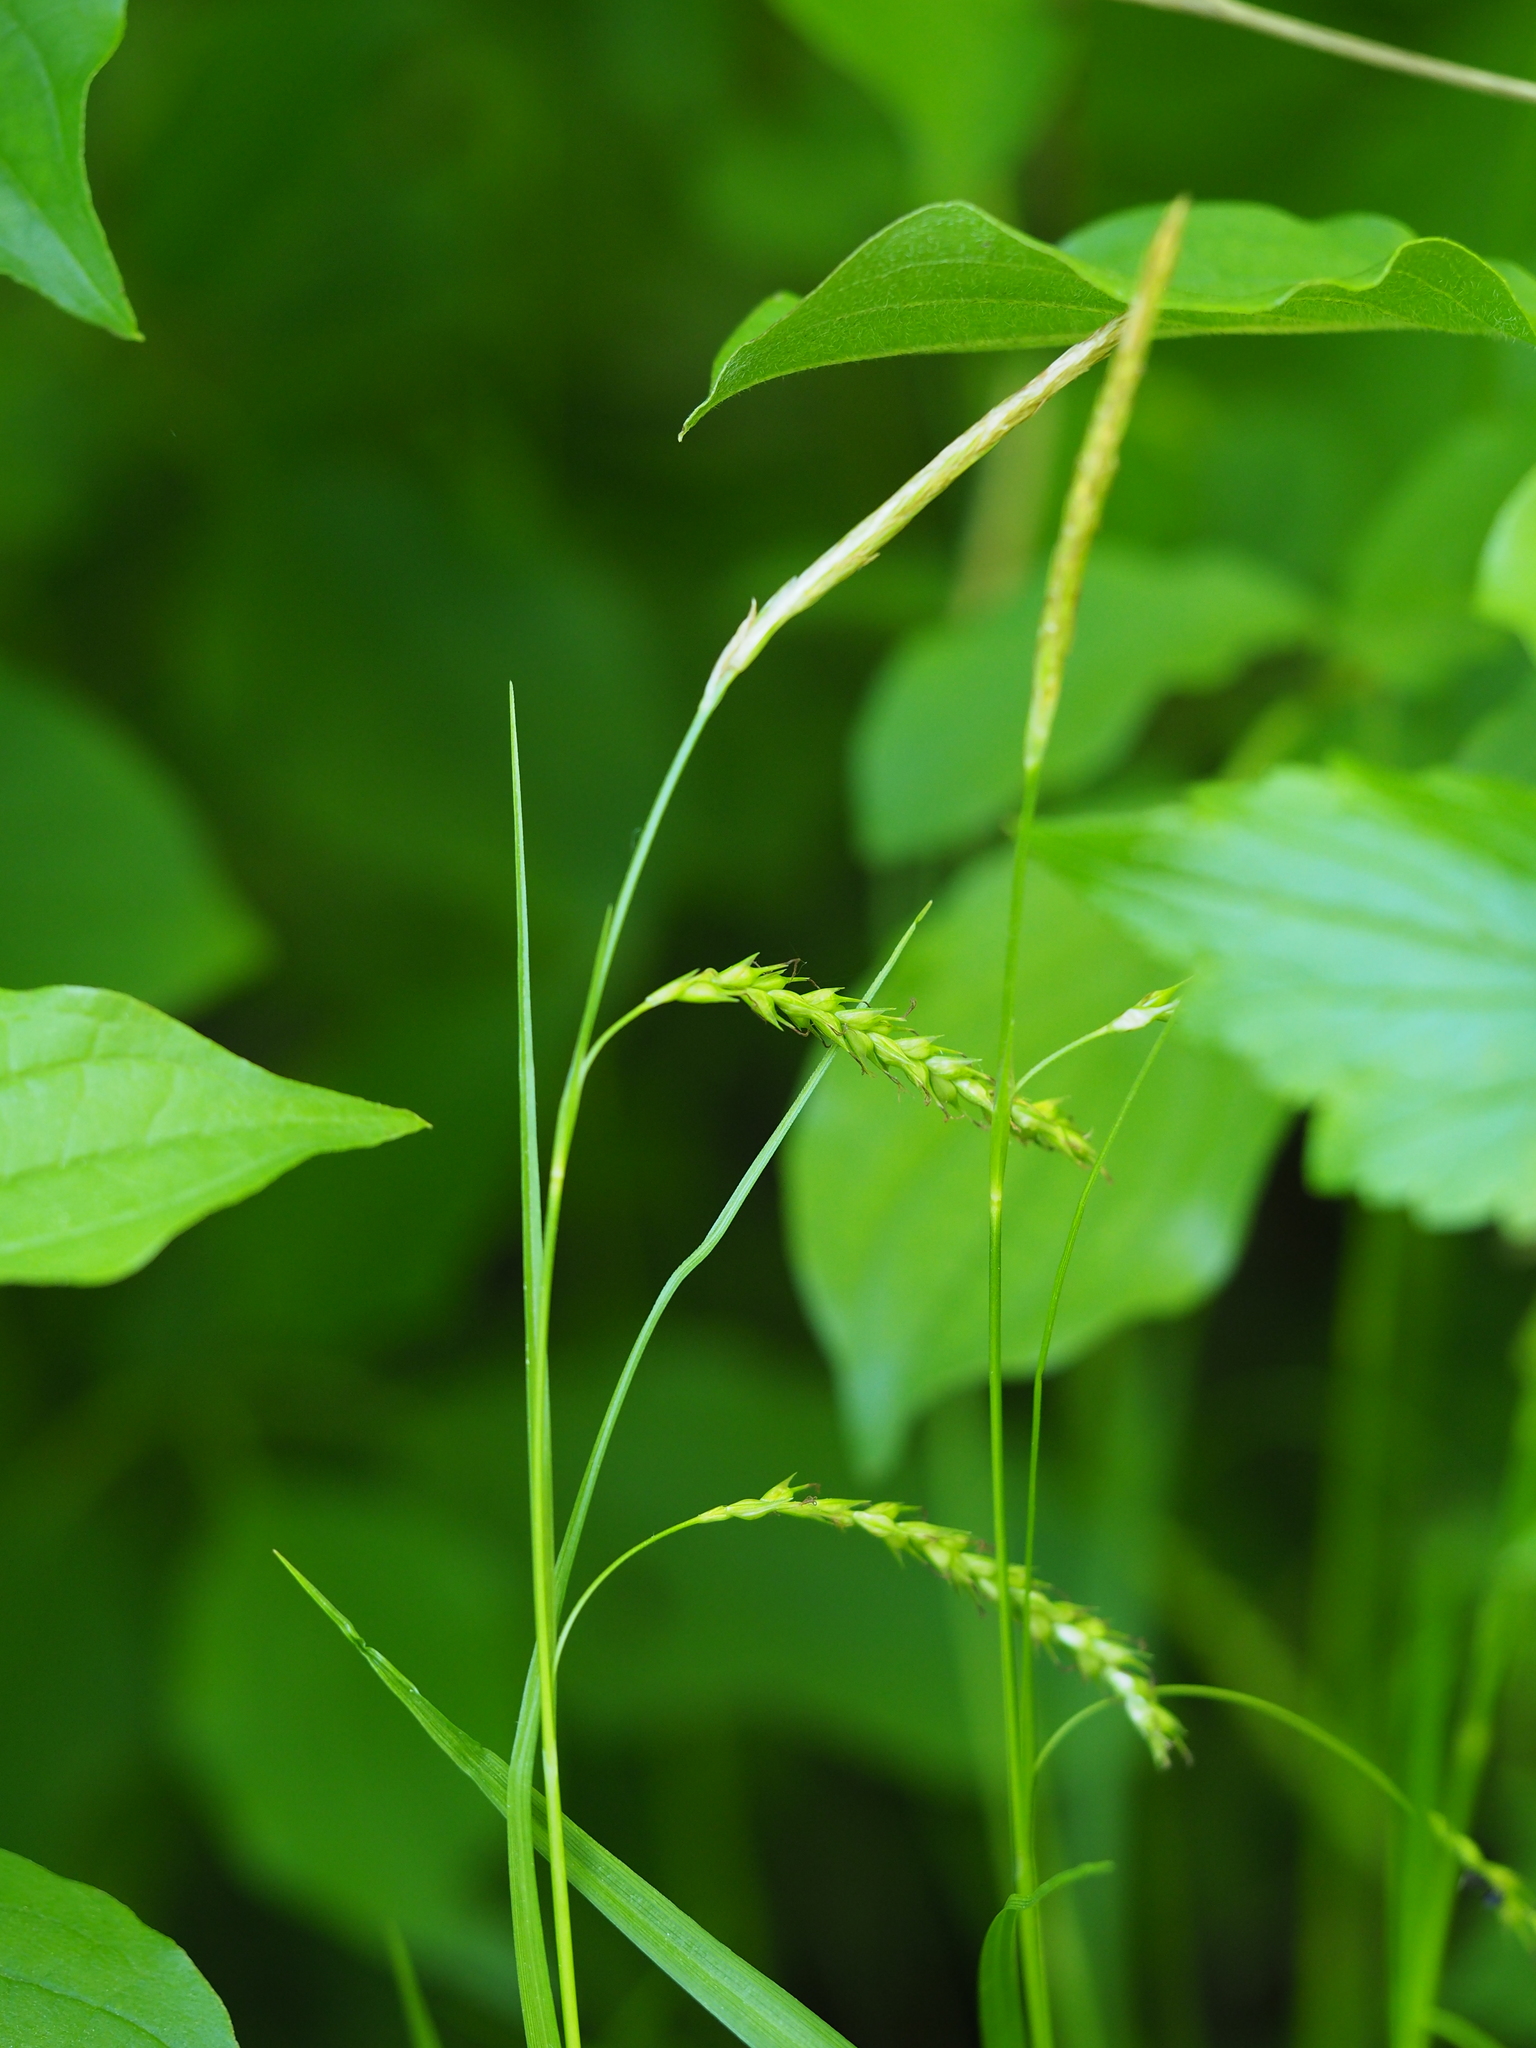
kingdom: Plantae
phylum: Tracheophyta
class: Liliopsida
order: Poales
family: Cyperaceae
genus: Carex
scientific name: Carex sylvatica
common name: Wood-sedge
